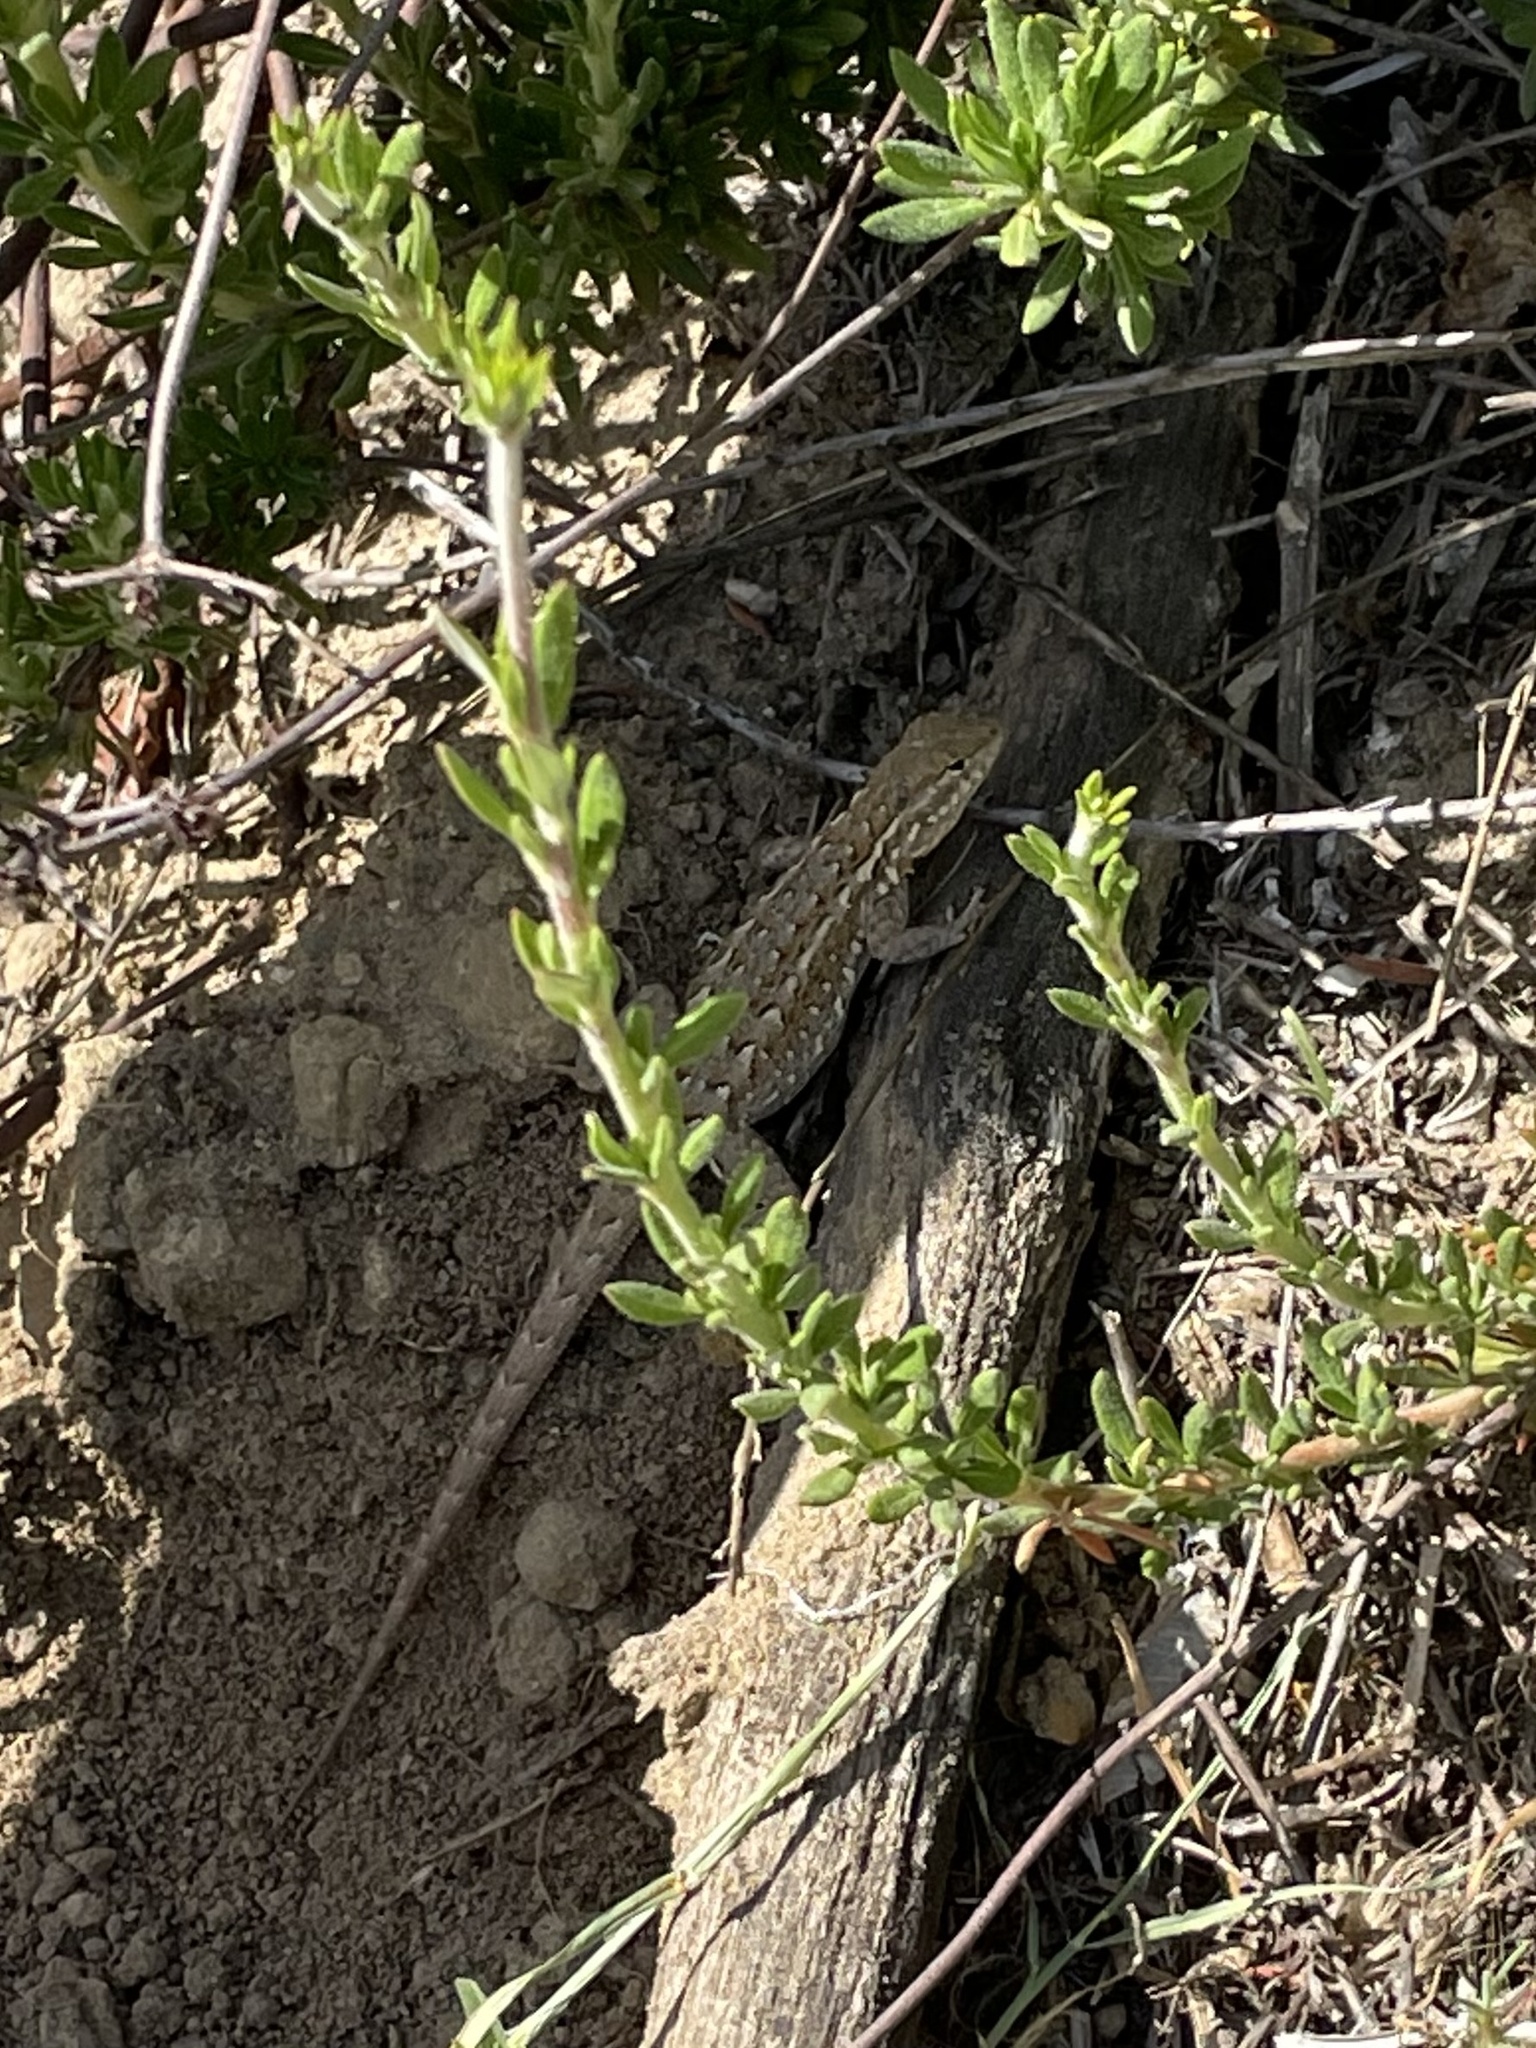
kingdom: Animalia
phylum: Chordata
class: Squamata
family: Phrynosomatidae
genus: Uta
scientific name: Uta stansburiana
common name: Side-blotched lizard
